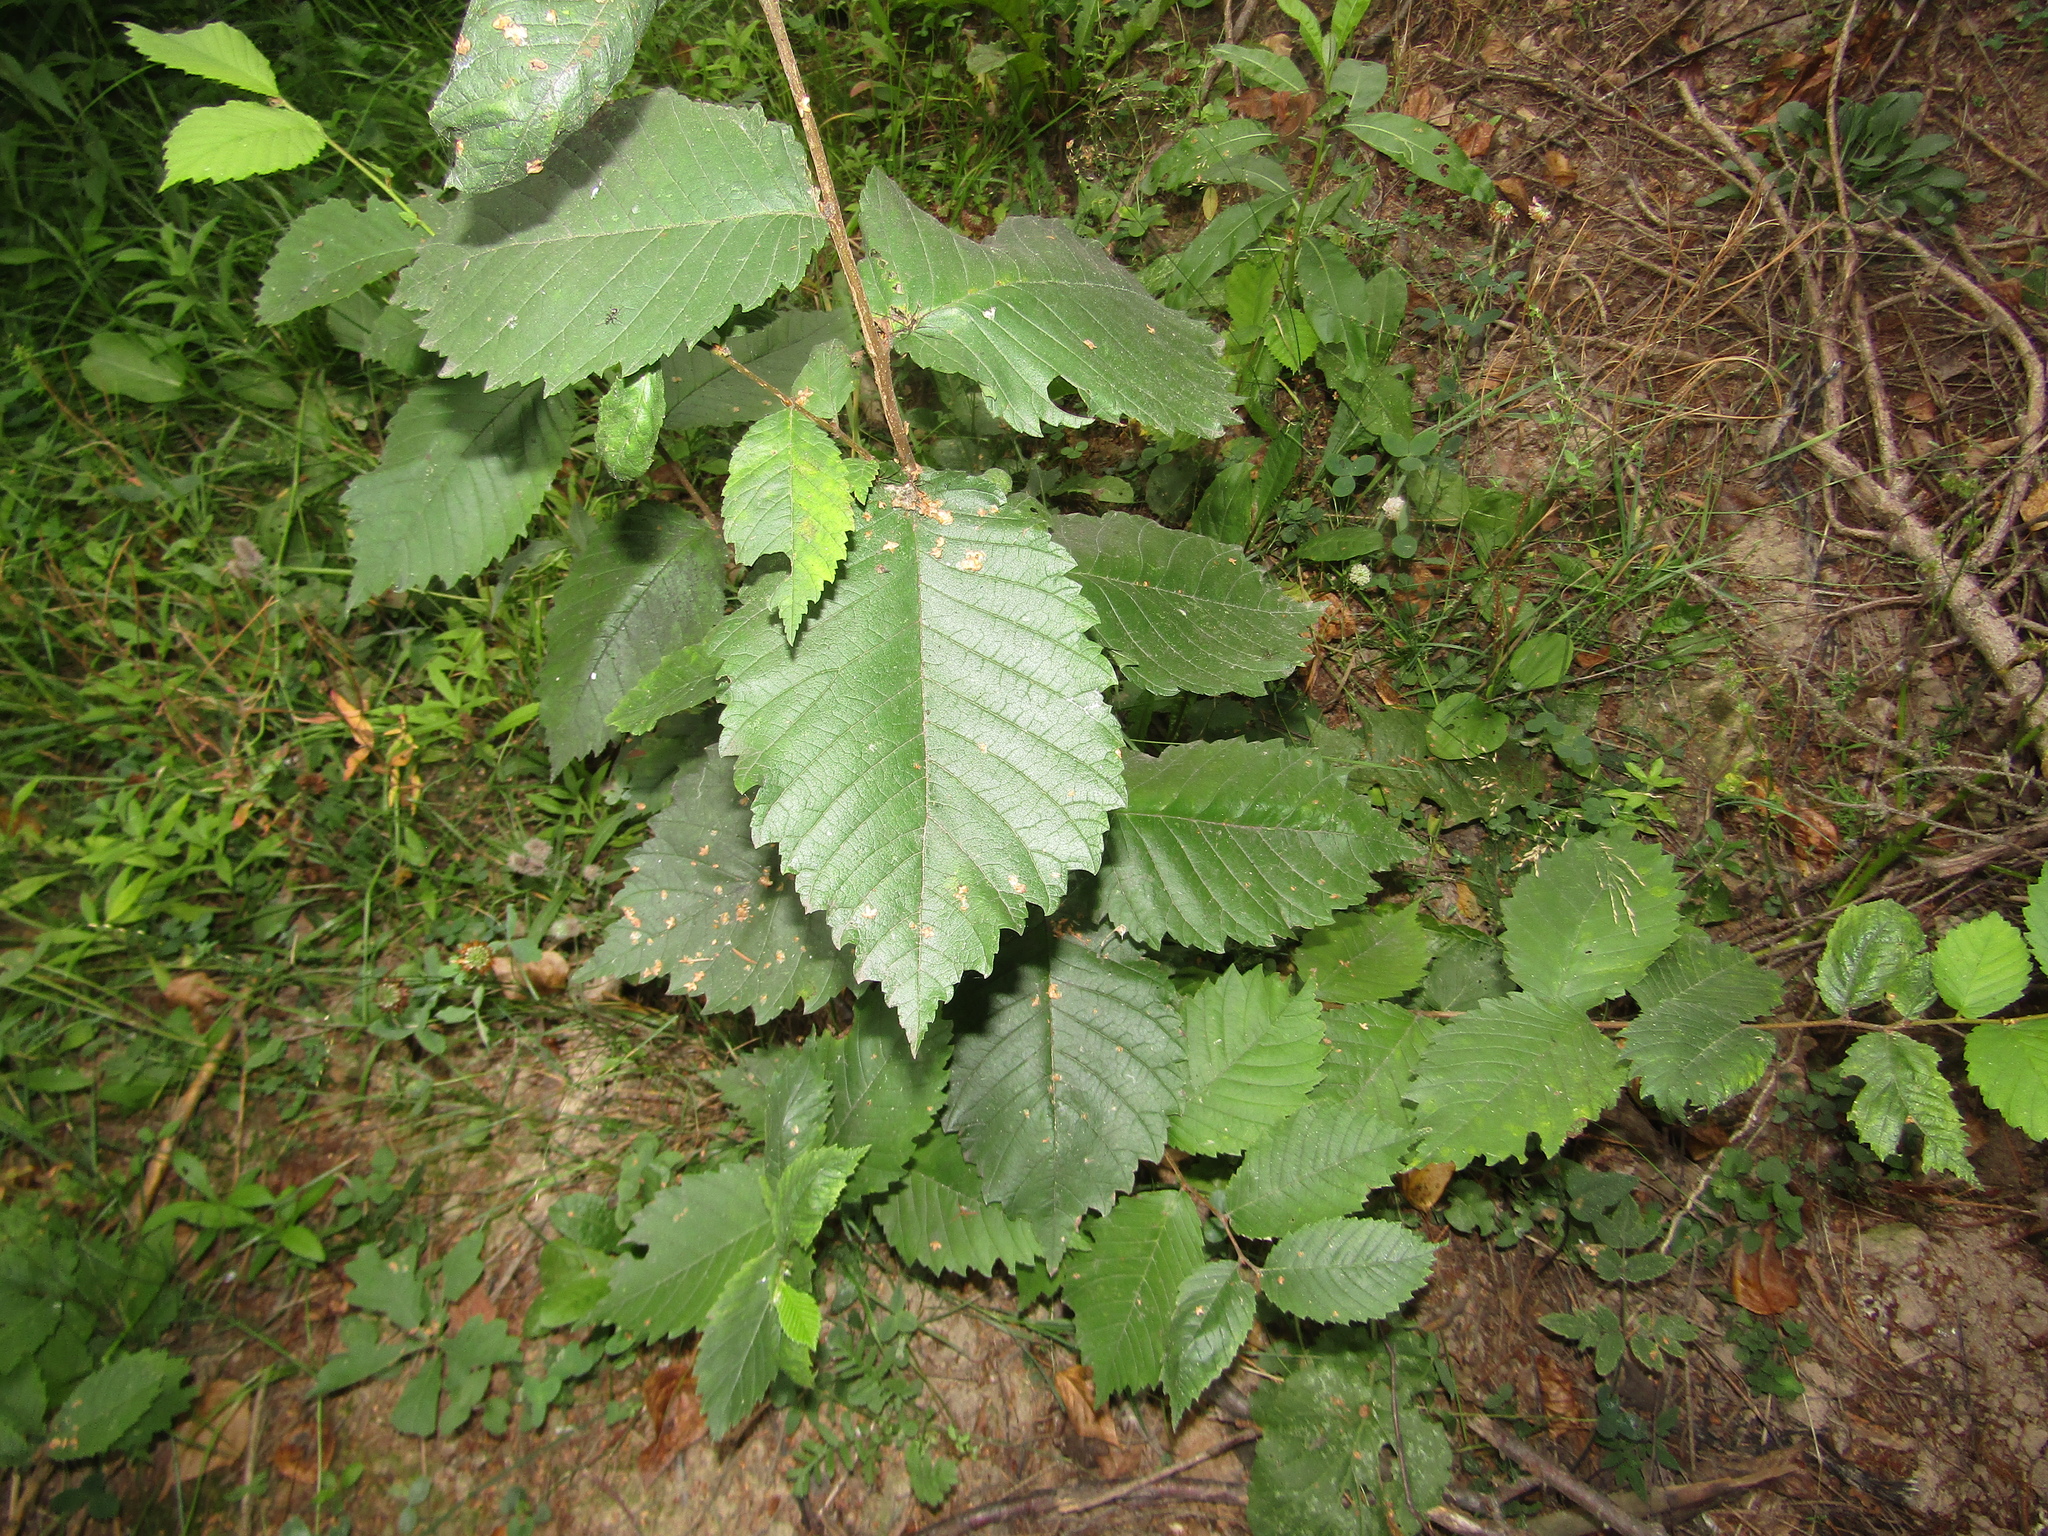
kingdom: Plantae
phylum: Tracheophyta
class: Magnoliopsida
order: Rosales
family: Ulmaceae
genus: Ulmus
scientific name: Ulmus laevis
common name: European white-elm
